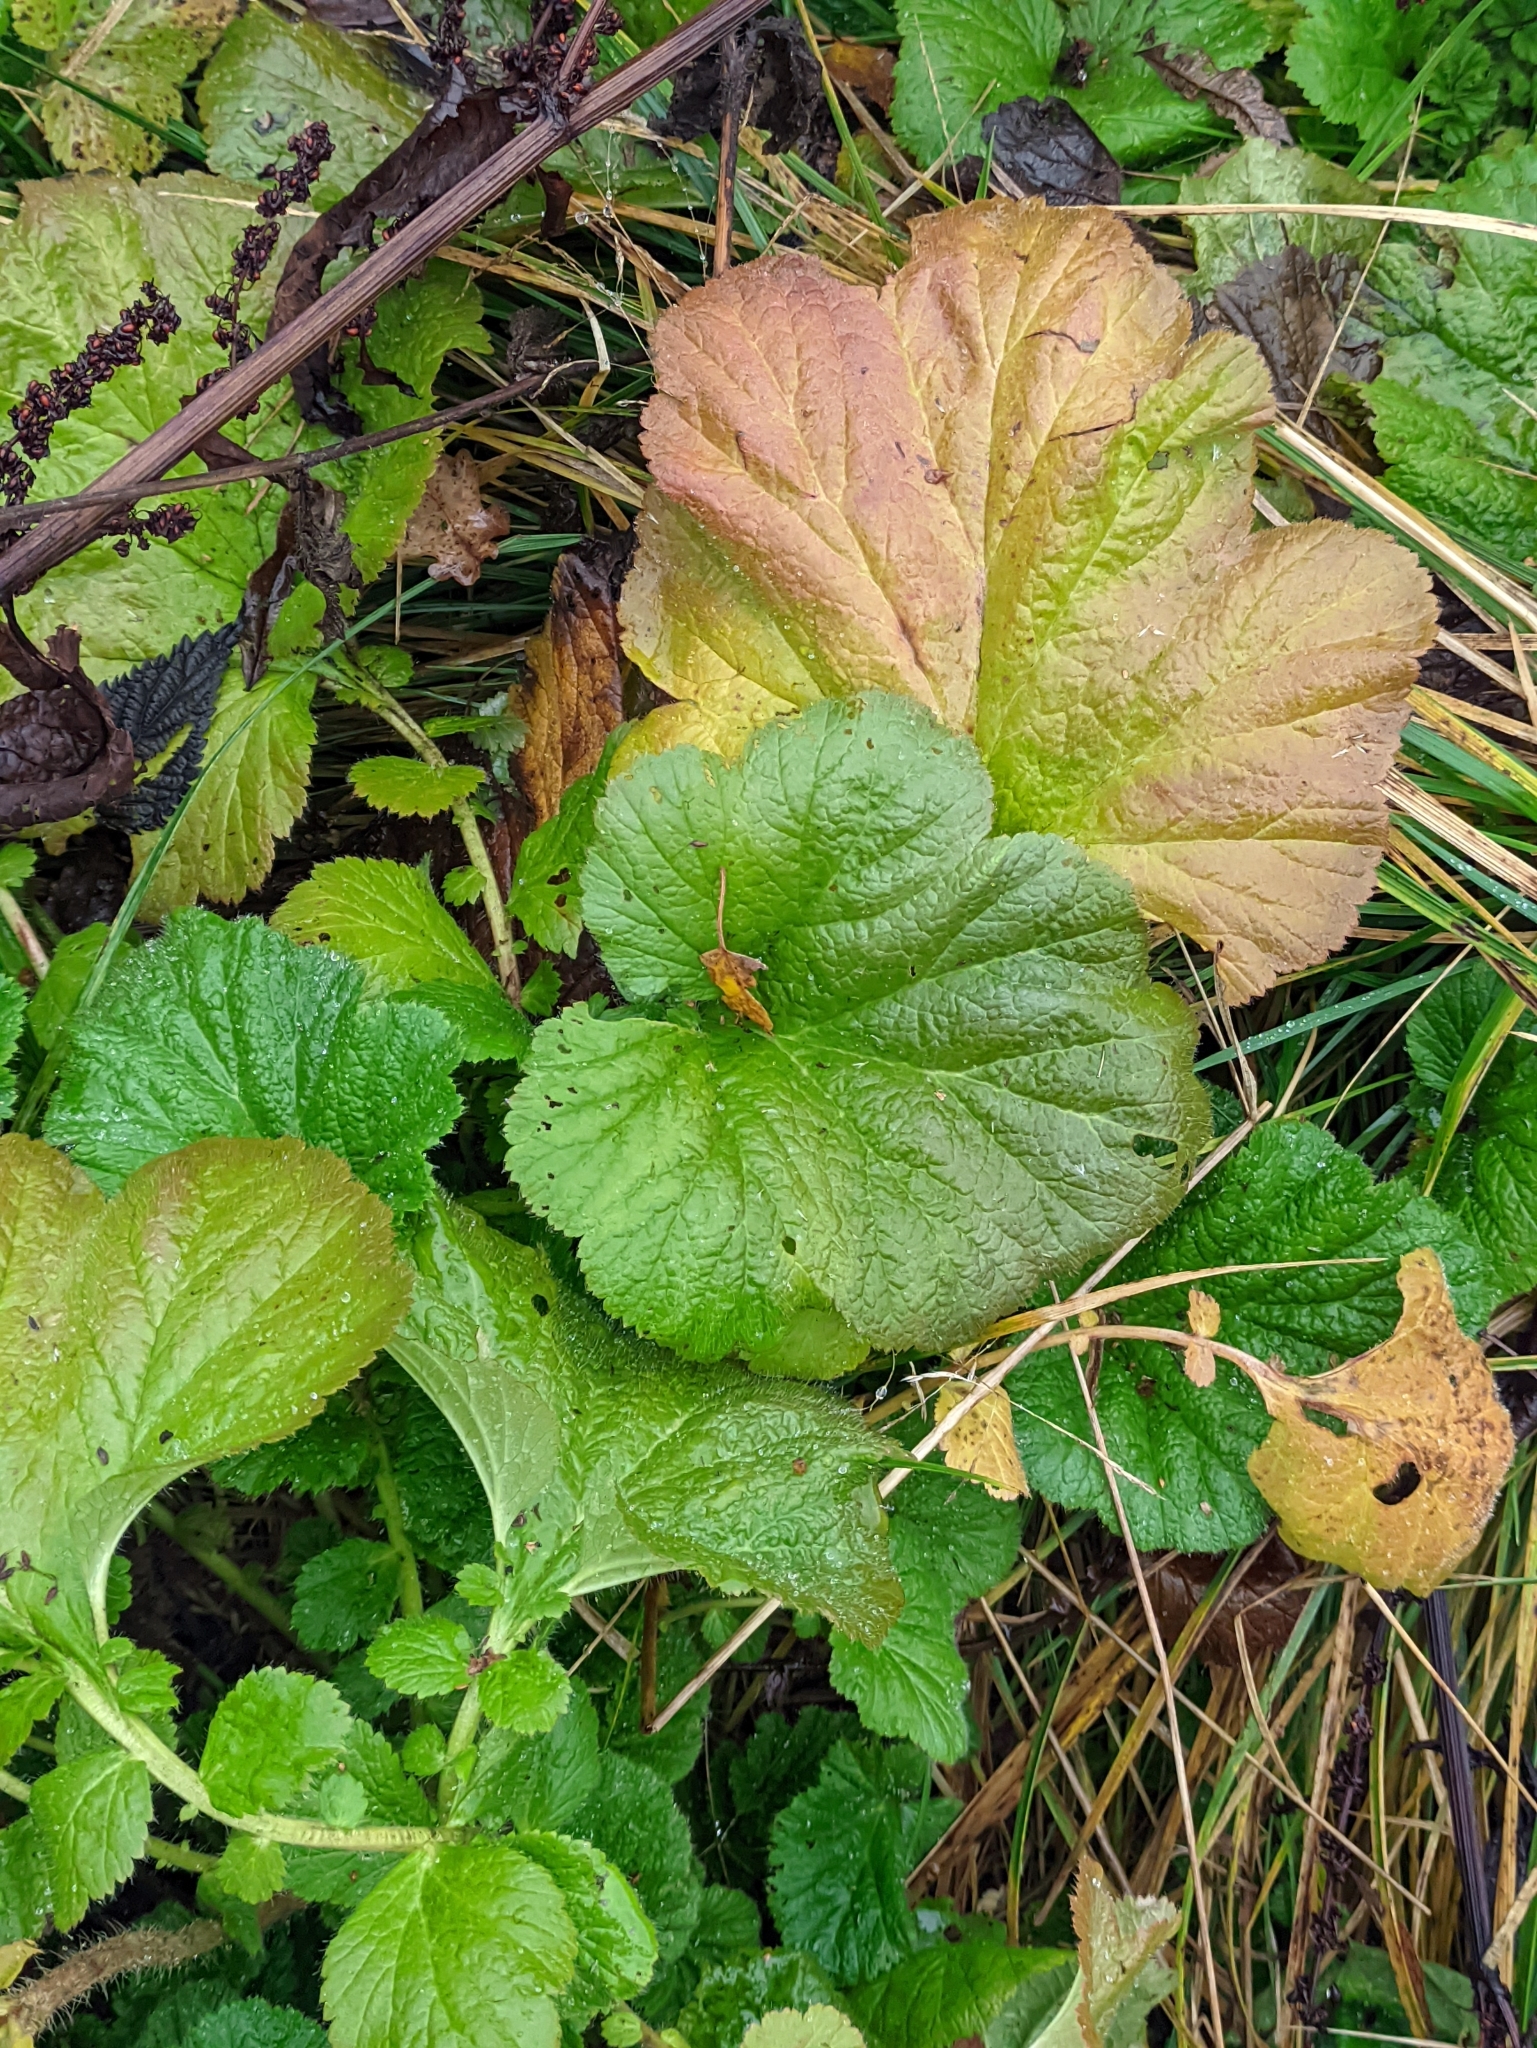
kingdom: Plantae
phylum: Tracheophyta
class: Magnoliopsida
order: Rosales
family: Rosaceae
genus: Geum
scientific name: Geum macrophyllum
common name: Large-leaved avens
